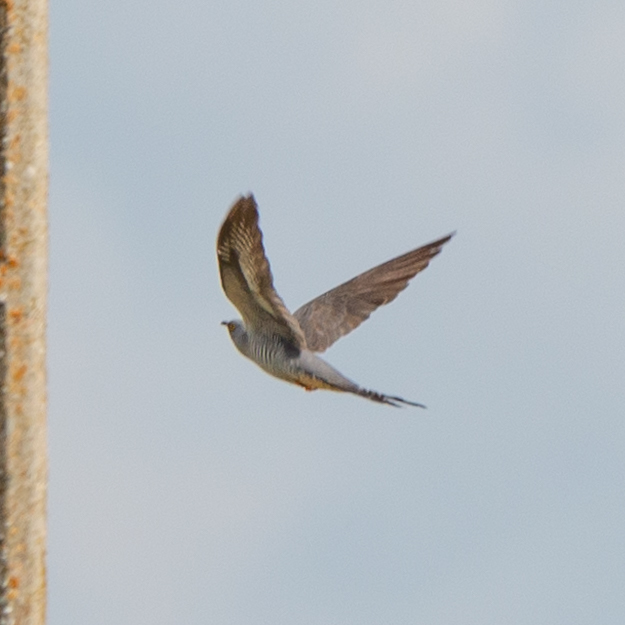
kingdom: Animalia
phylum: Chordata
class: Aves
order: Cuculiformes
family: Cuculidae
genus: Cuculus
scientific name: Cuculus canorus
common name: Common cuckoo
